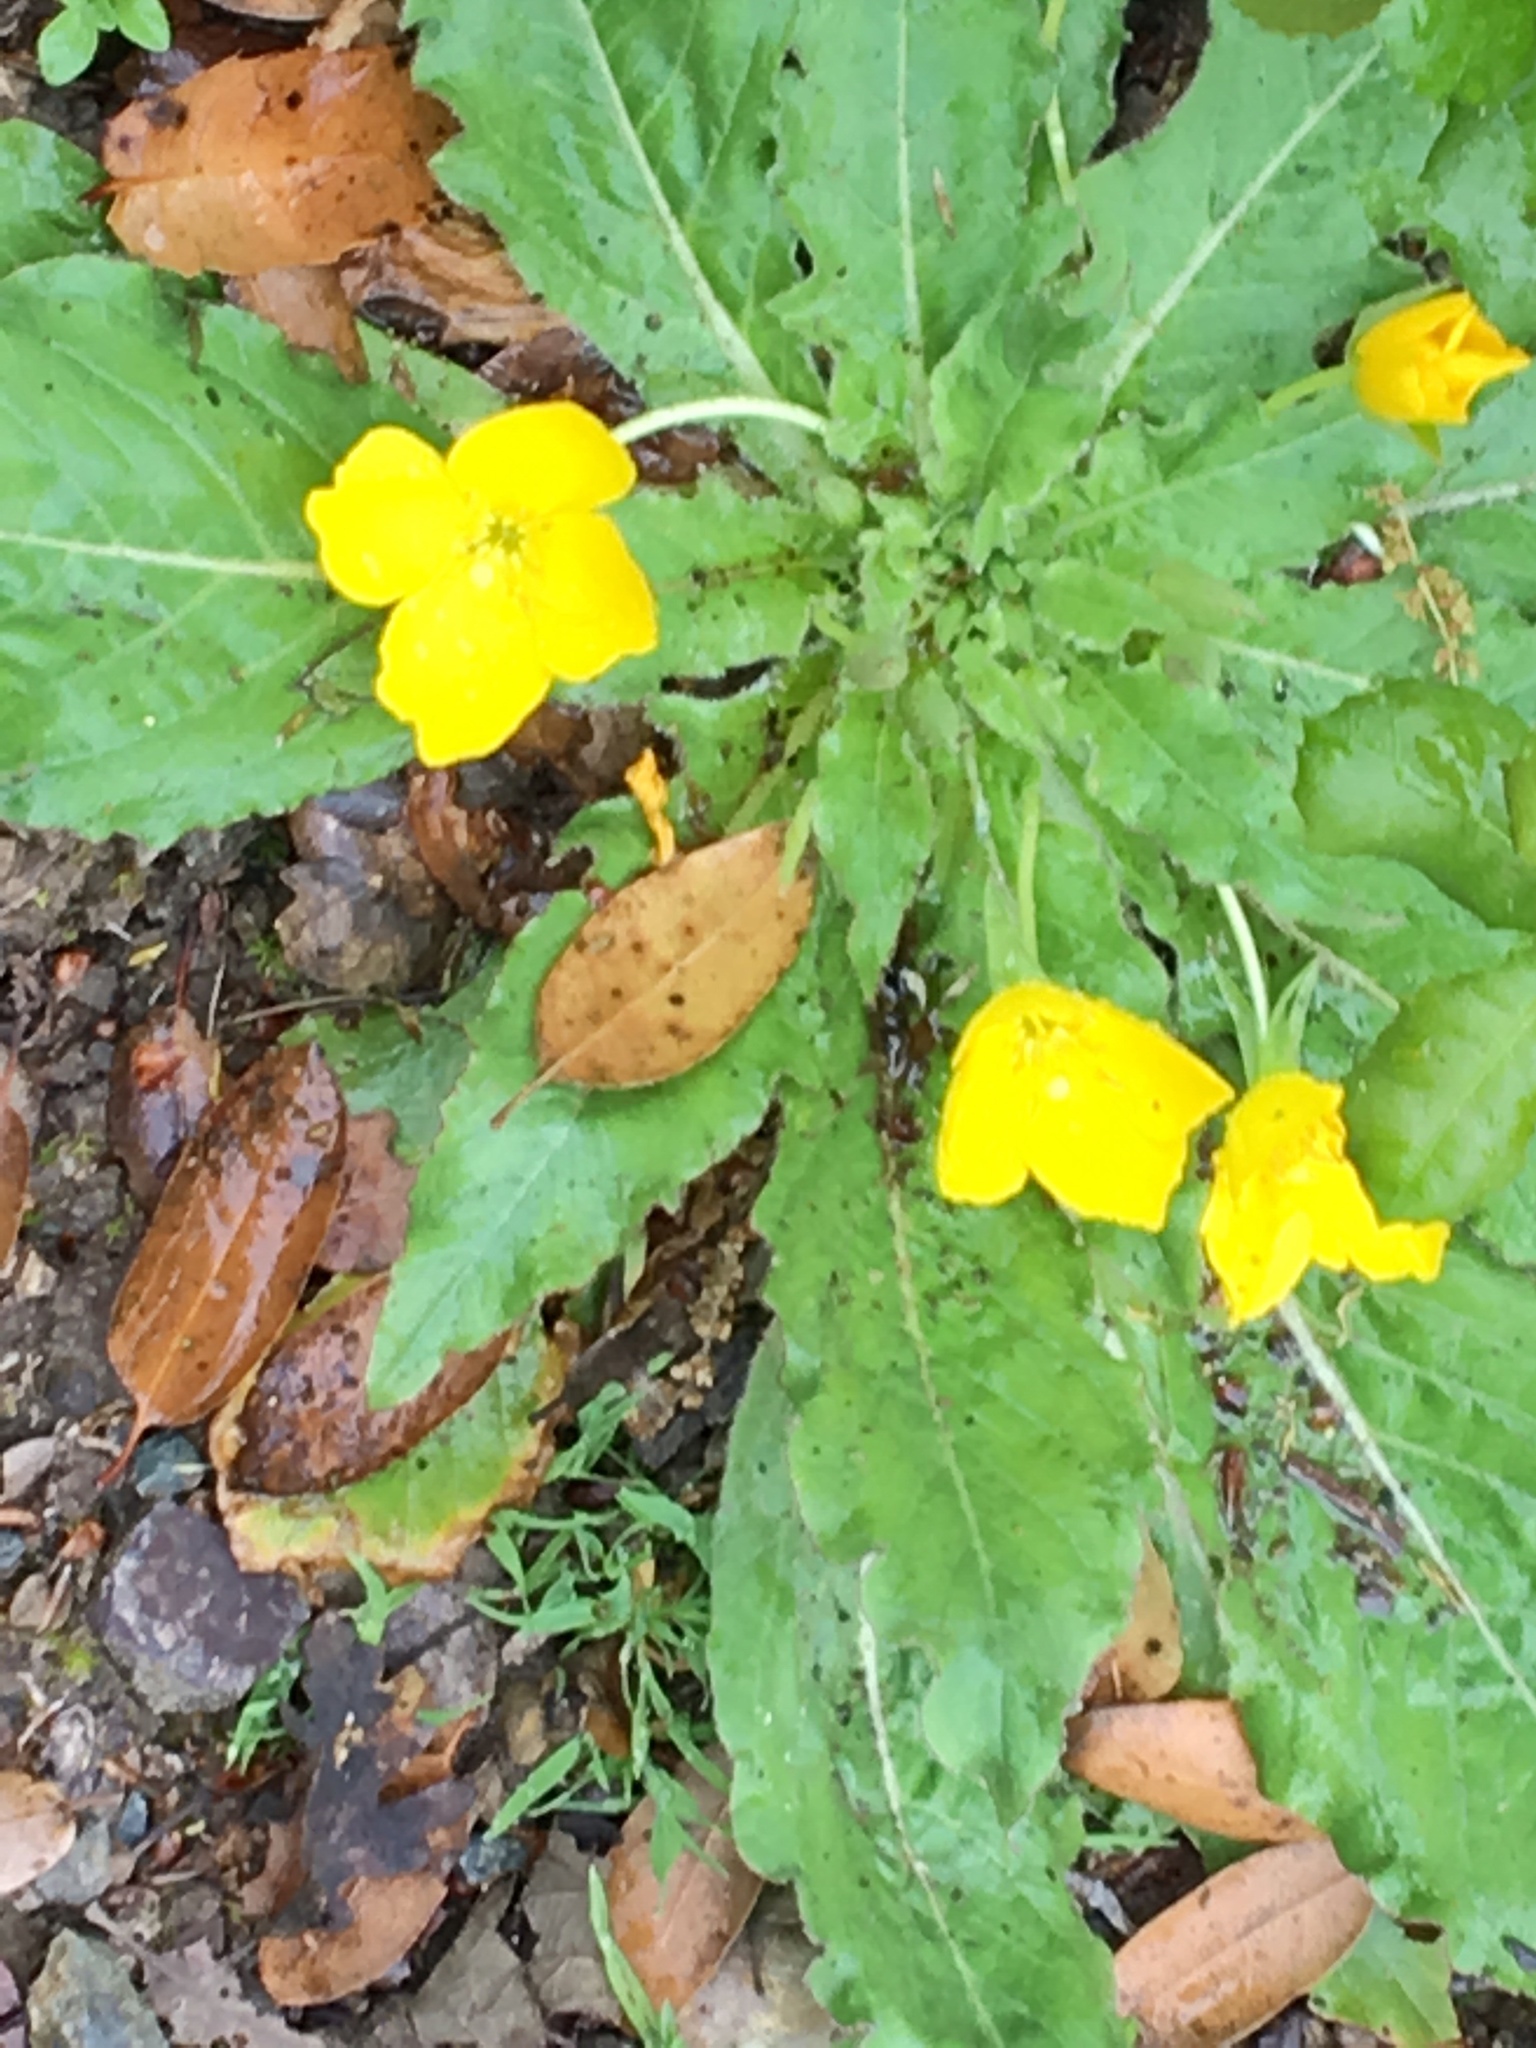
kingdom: Plantae
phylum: Tracheophyta
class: Magnoliopsida
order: Myrtales
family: Onagraceae
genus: Taraxia
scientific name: Taraxia ovata
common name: Goldeneggs
